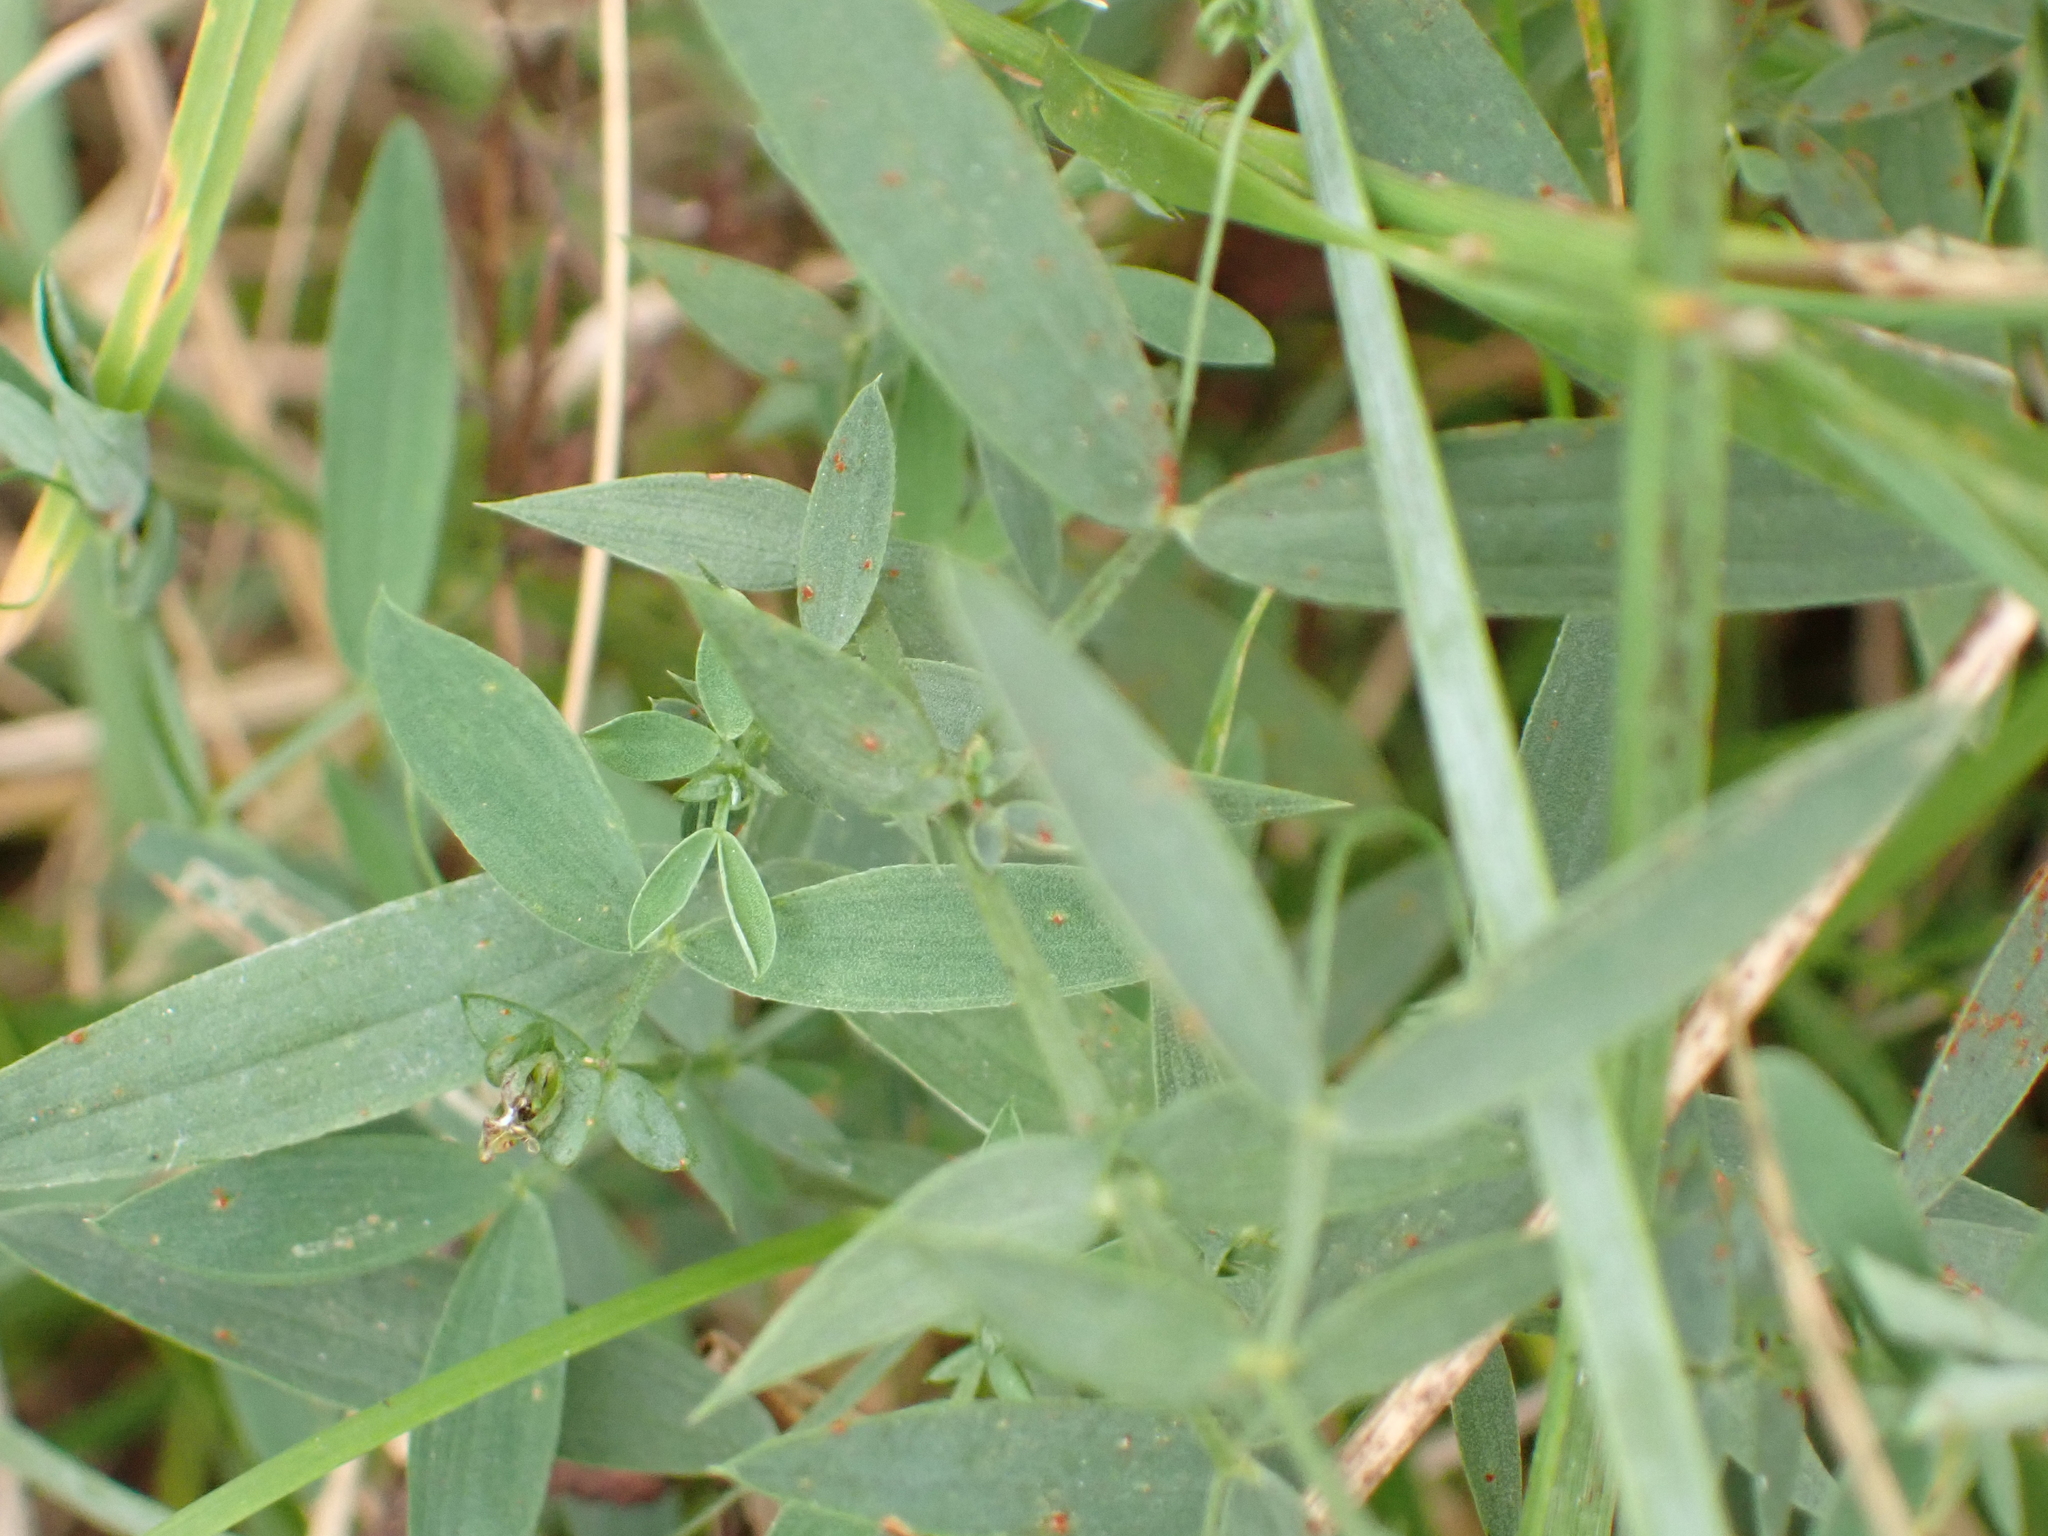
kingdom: Plantae
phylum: Tracheophyta
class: Magnoliopsida
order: Fabales
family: Fabaceae
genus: Lathyrus
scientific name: Lathyrus pratensis
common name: Meadow vetchling
